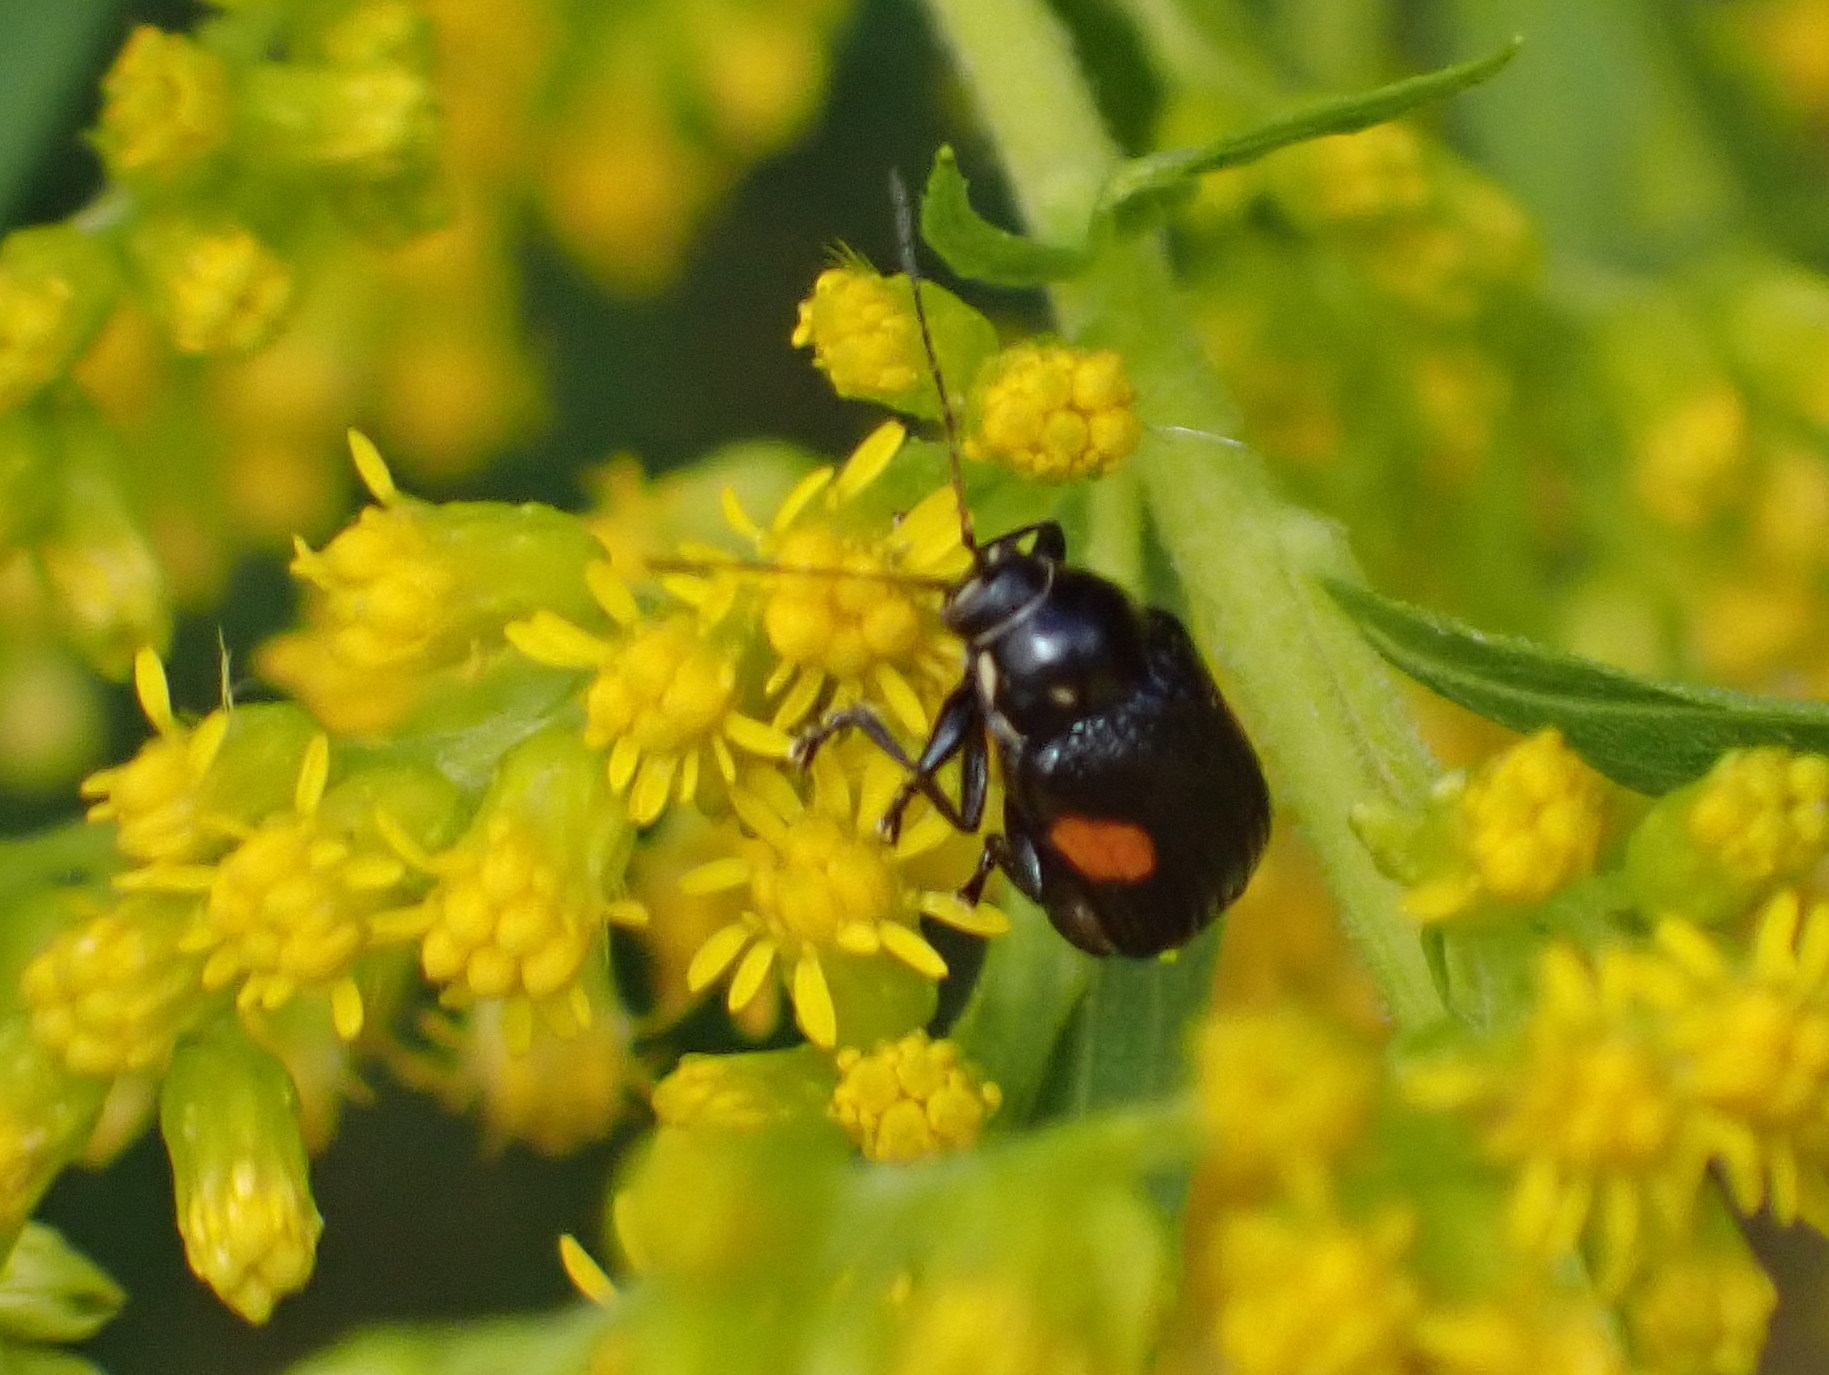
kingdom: Animalia
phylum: Arthropoda
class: Insecta
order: Coleoptera
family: Chrysomelidae
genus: Bassareus
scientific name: Bassareus mammifer
